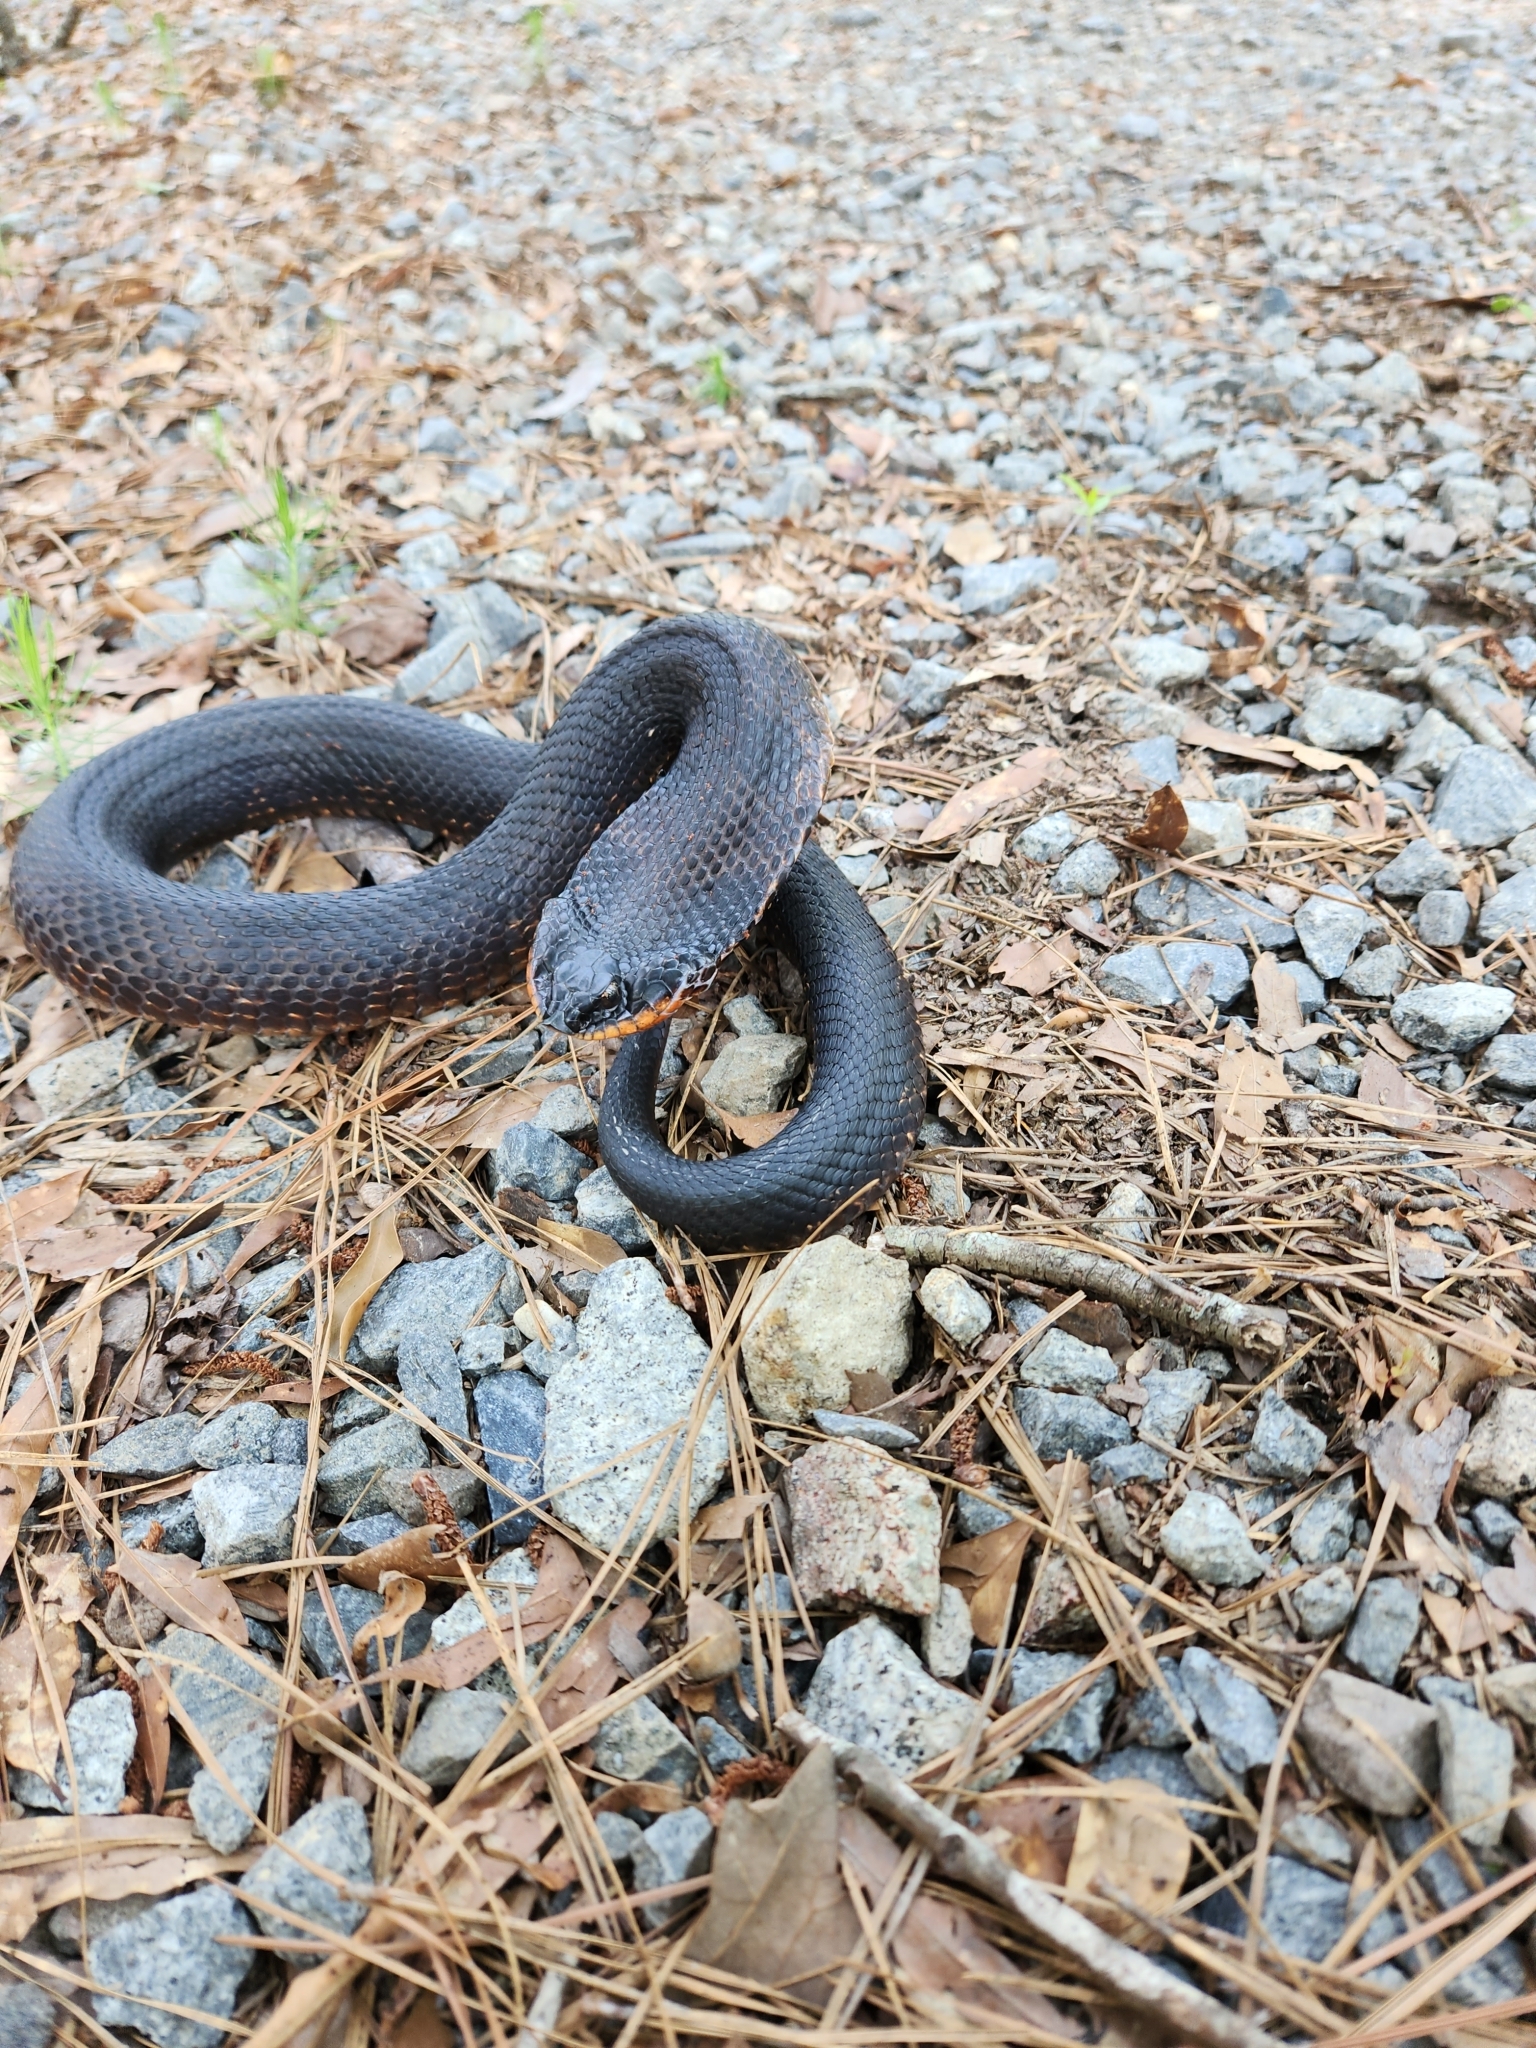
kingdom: Animalia
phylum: Chordata
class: Squamata
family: Colubridae
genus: Heterodon
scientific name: Heterodon platirhinos
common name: Eastern hognose snake
